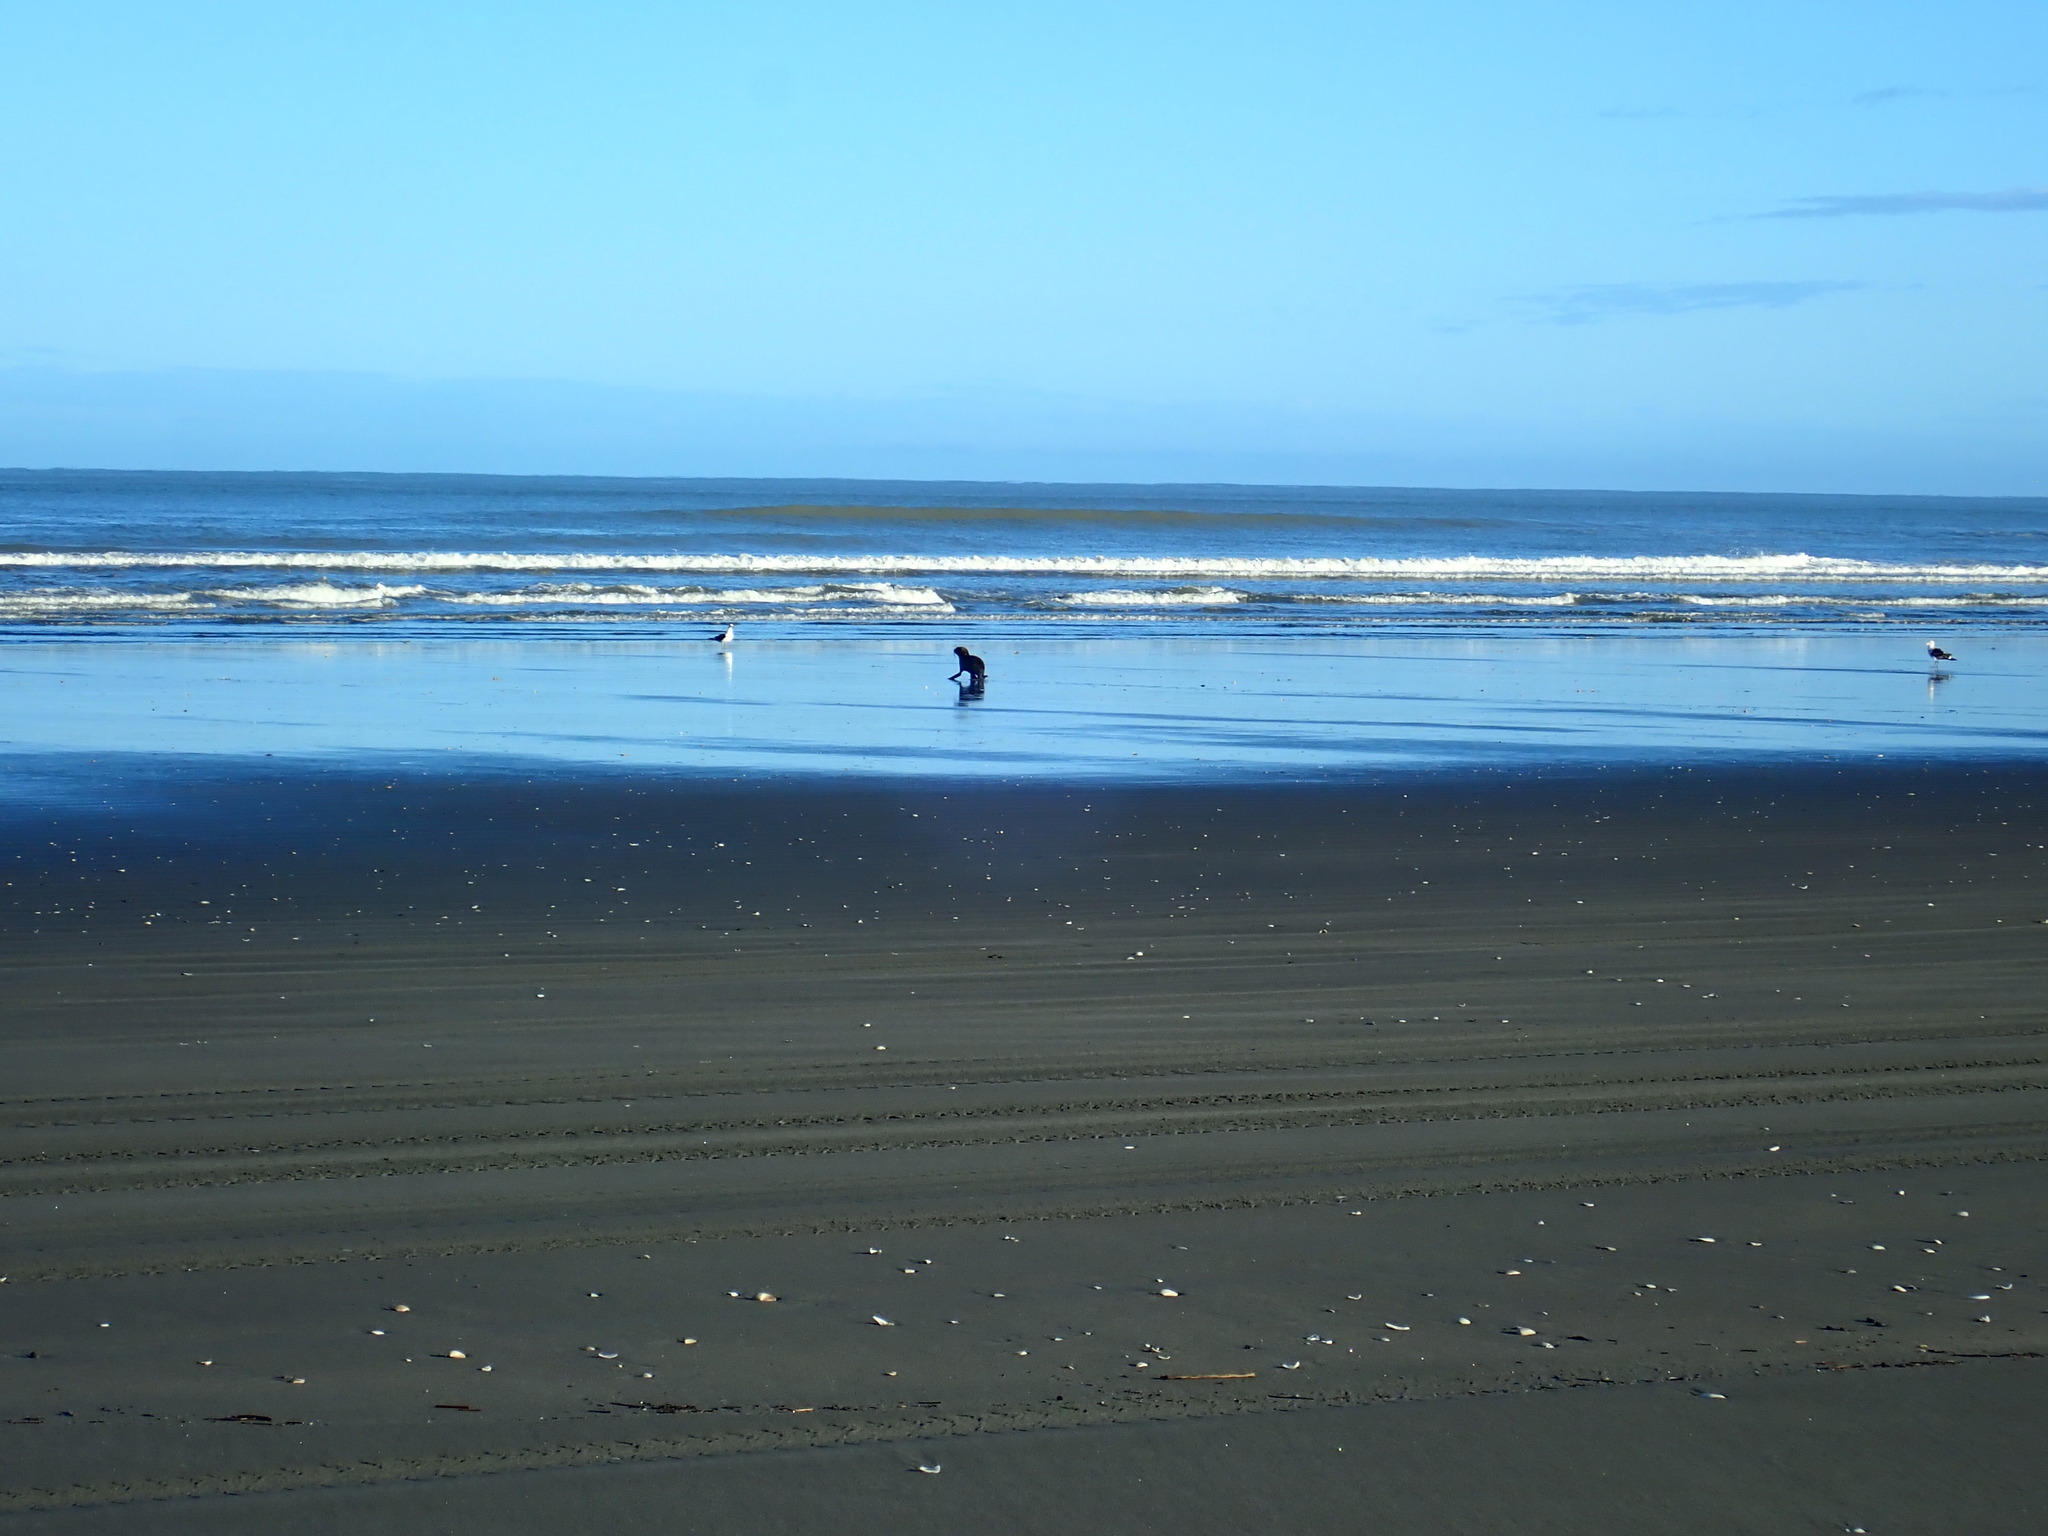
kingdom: Animalia
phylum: Chordata
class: Mammalia
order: Carnivora
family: Otariidae
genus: Arctocephalus
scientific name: Arctocephalus forsteri
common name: New zealand fur seal
